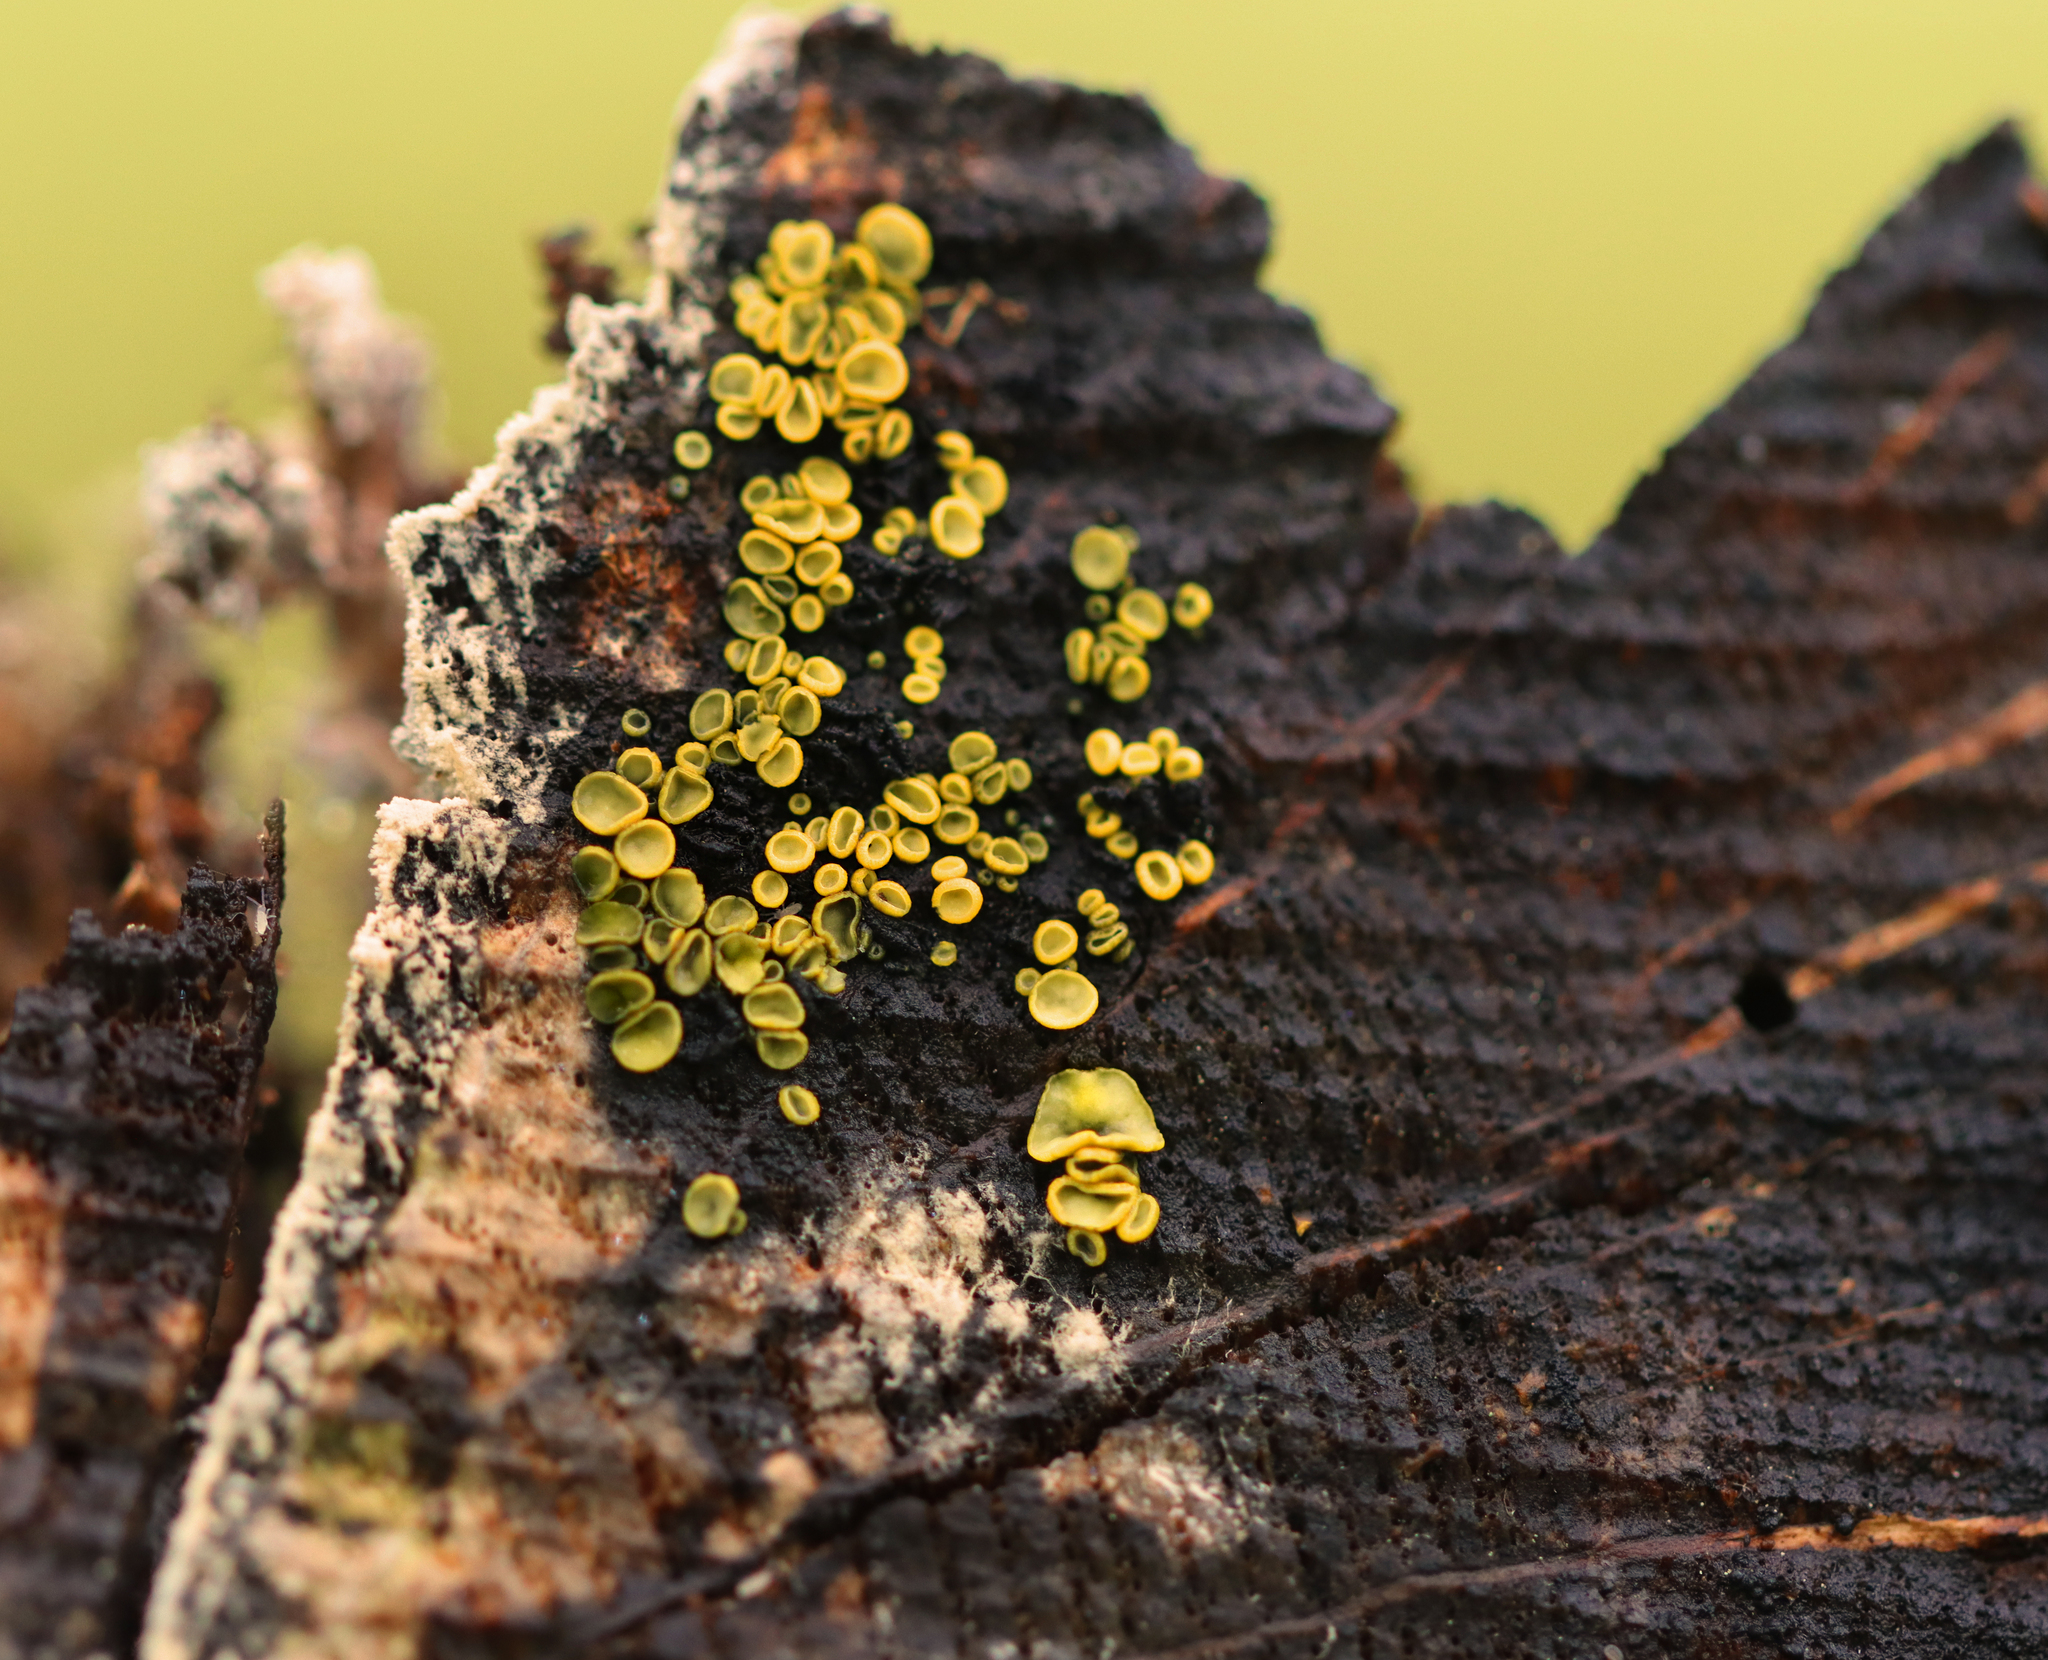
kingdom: Fungi
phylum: Ascomycota
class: Leotiomycetes
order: Helotiales
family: Chlorospleniaceae
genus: Chlorosplenium
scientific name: Chlorosplenium chlora
